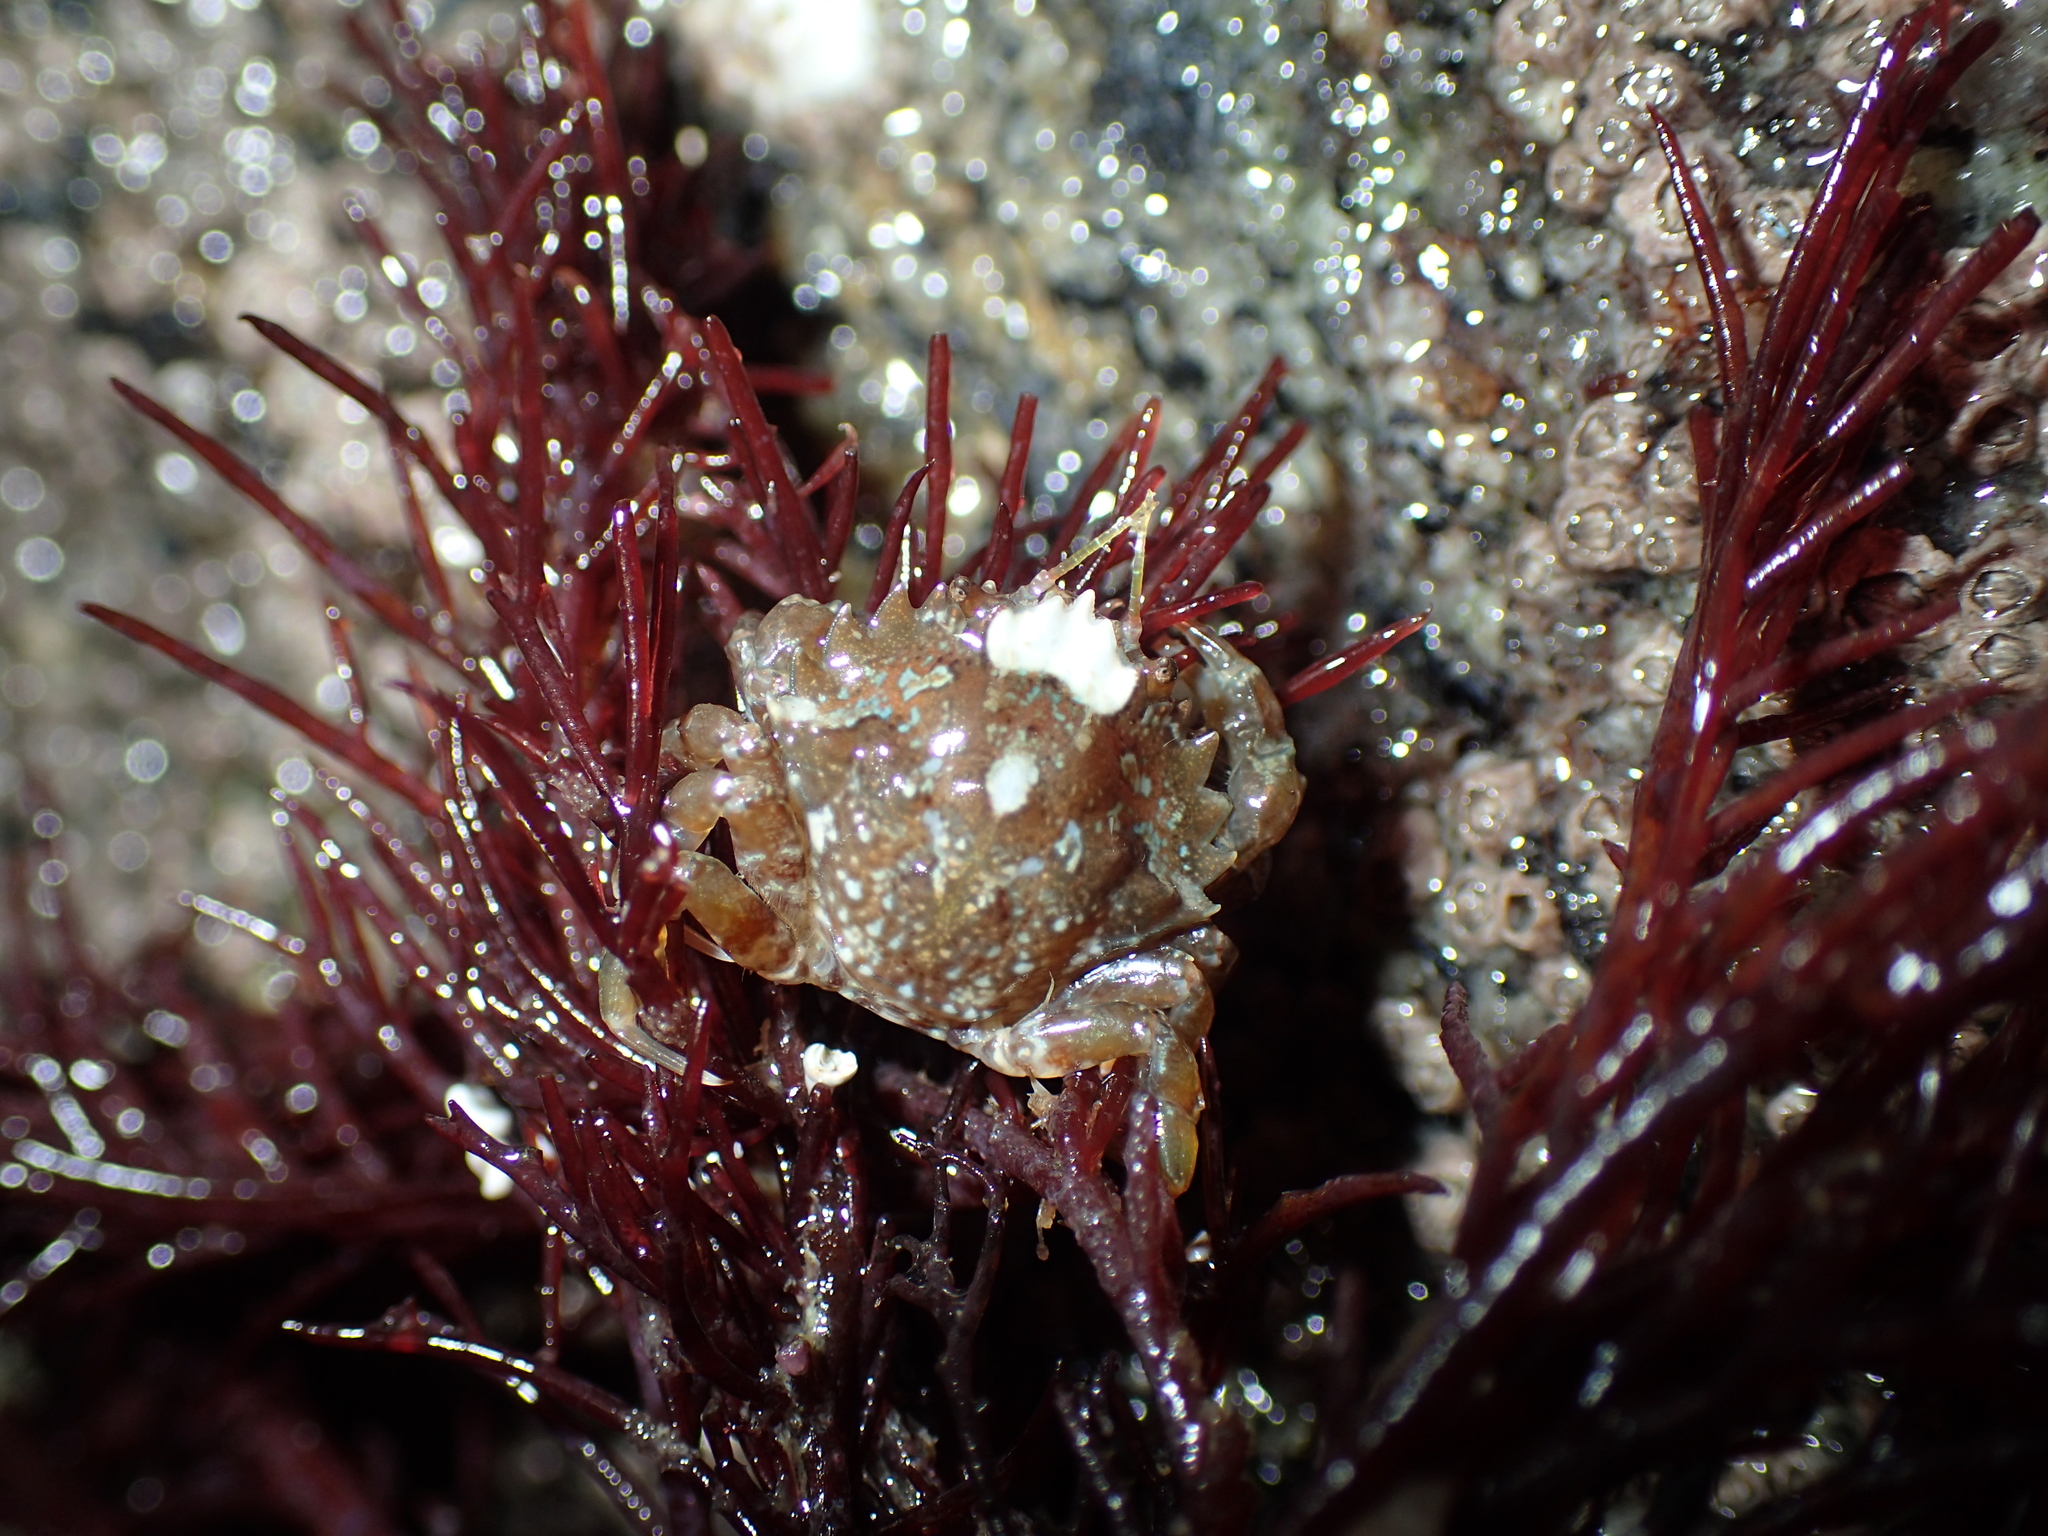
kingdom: Animalia
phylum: Arthropoda
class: Malacostraca
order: Decapoda
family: Pirimelidae
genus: Pirimela
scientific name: Pirimela denticulata
